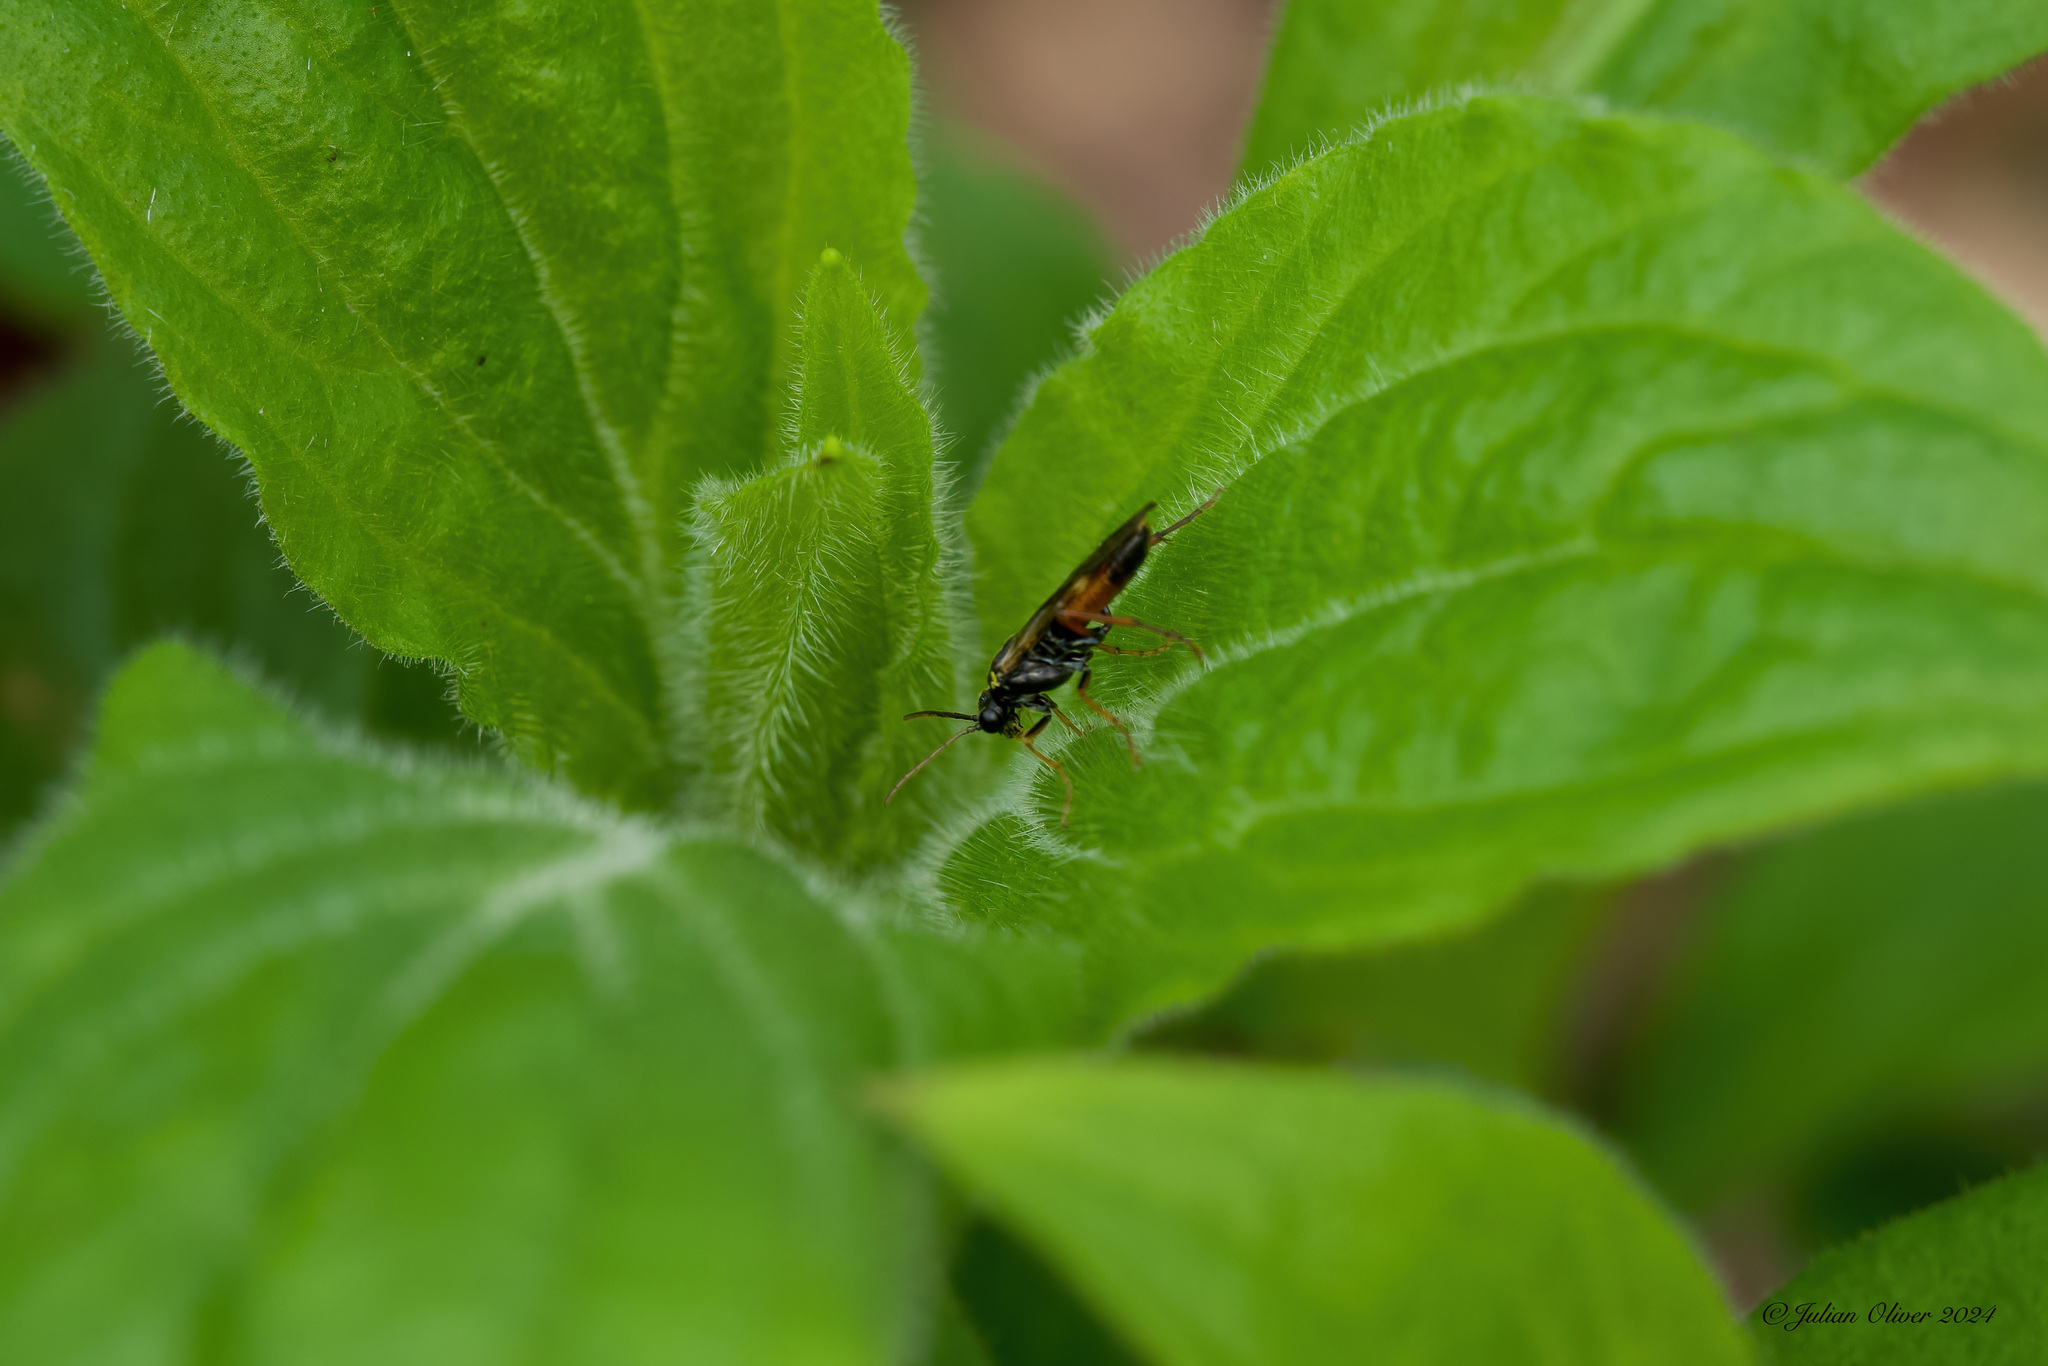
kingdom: Animalia
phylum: Arthropoda
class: Insecta
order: Hymenoptera
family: Tenthredinidae
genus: Aglaostigma
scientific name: Aglaostigma aucupariae
